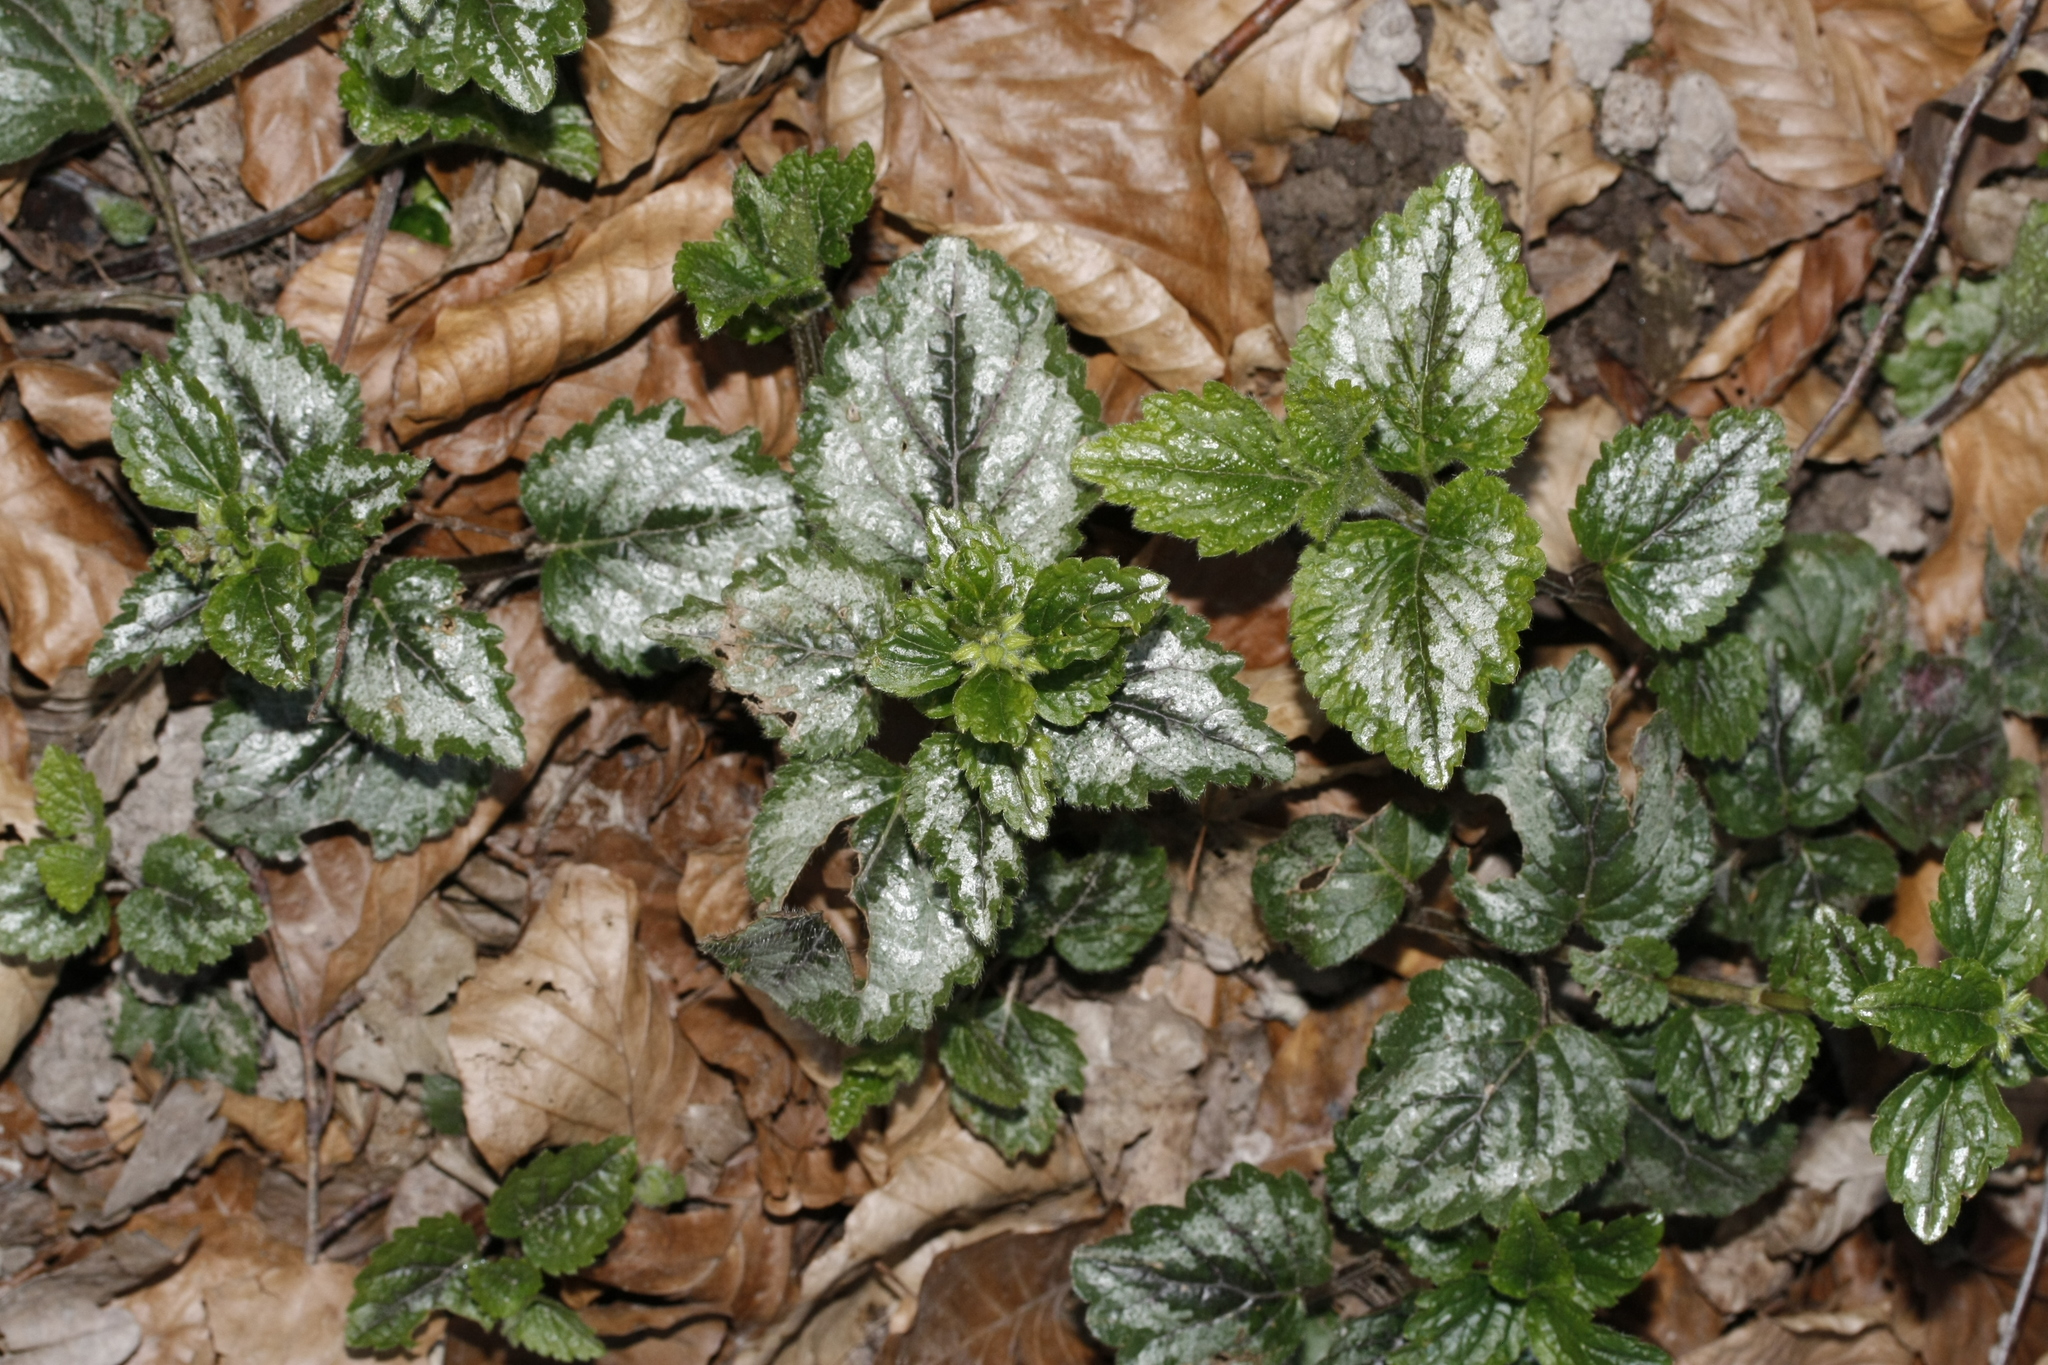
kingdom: Plantae
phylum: Tracheophyta
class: Magnoliopsida
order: Lamiales
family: Lamiaceae
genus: Lamium
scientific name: Lamium galeobdolon
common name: Yellow archangel
